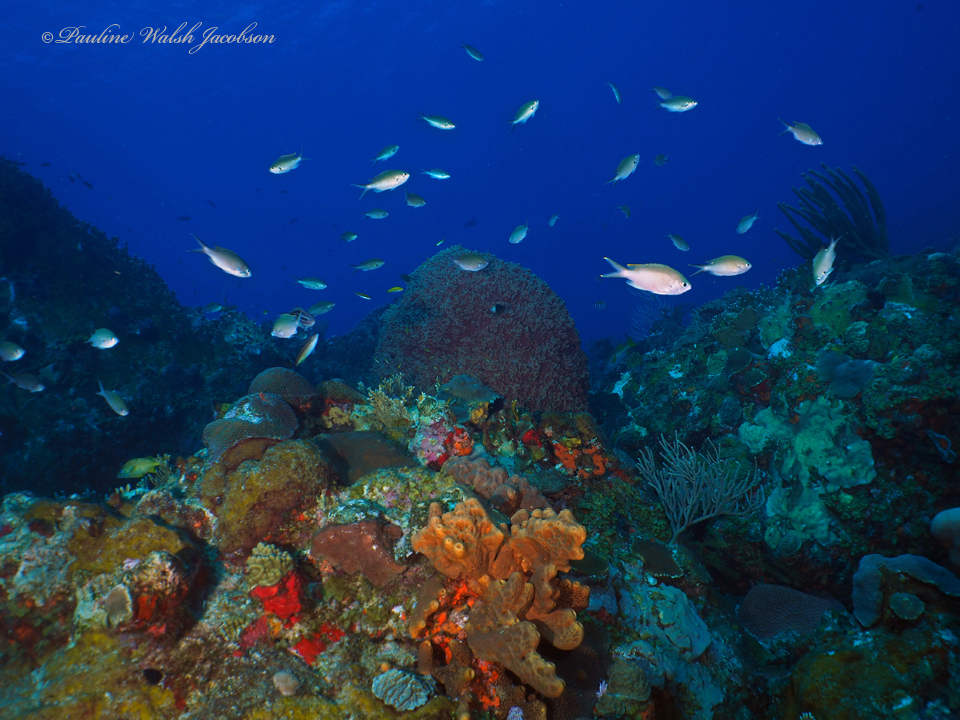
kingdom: Animalia
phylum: Chordata
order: Perciformes
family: Pomacentridae
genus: Chromis
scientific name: Chromis multilineata
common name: Brown chromis
